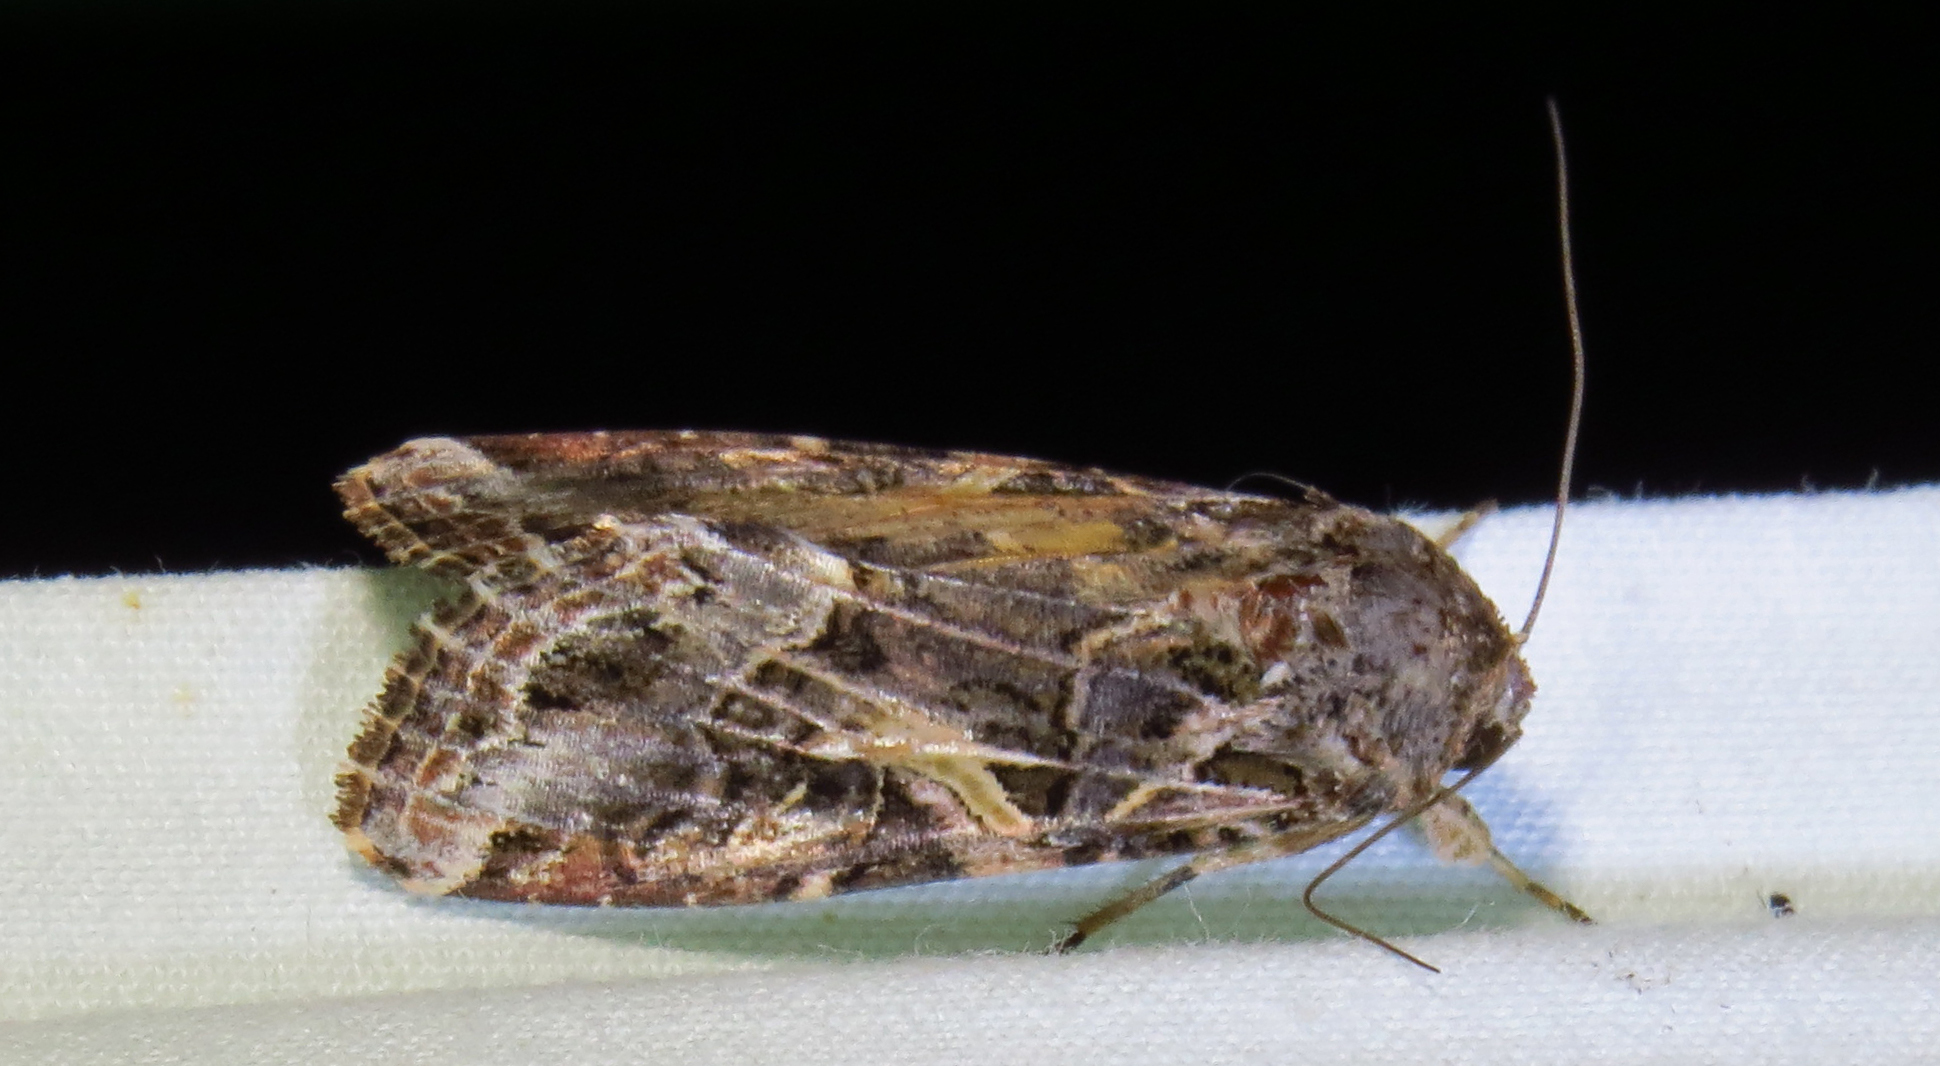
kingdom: Animalia
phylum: Arthropoda
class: Insecta
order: Lepidoptera
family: Noctuidae
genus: Spodoptera
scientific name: Spodoptera ornithogalli
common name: Yellow-striped armyworm
